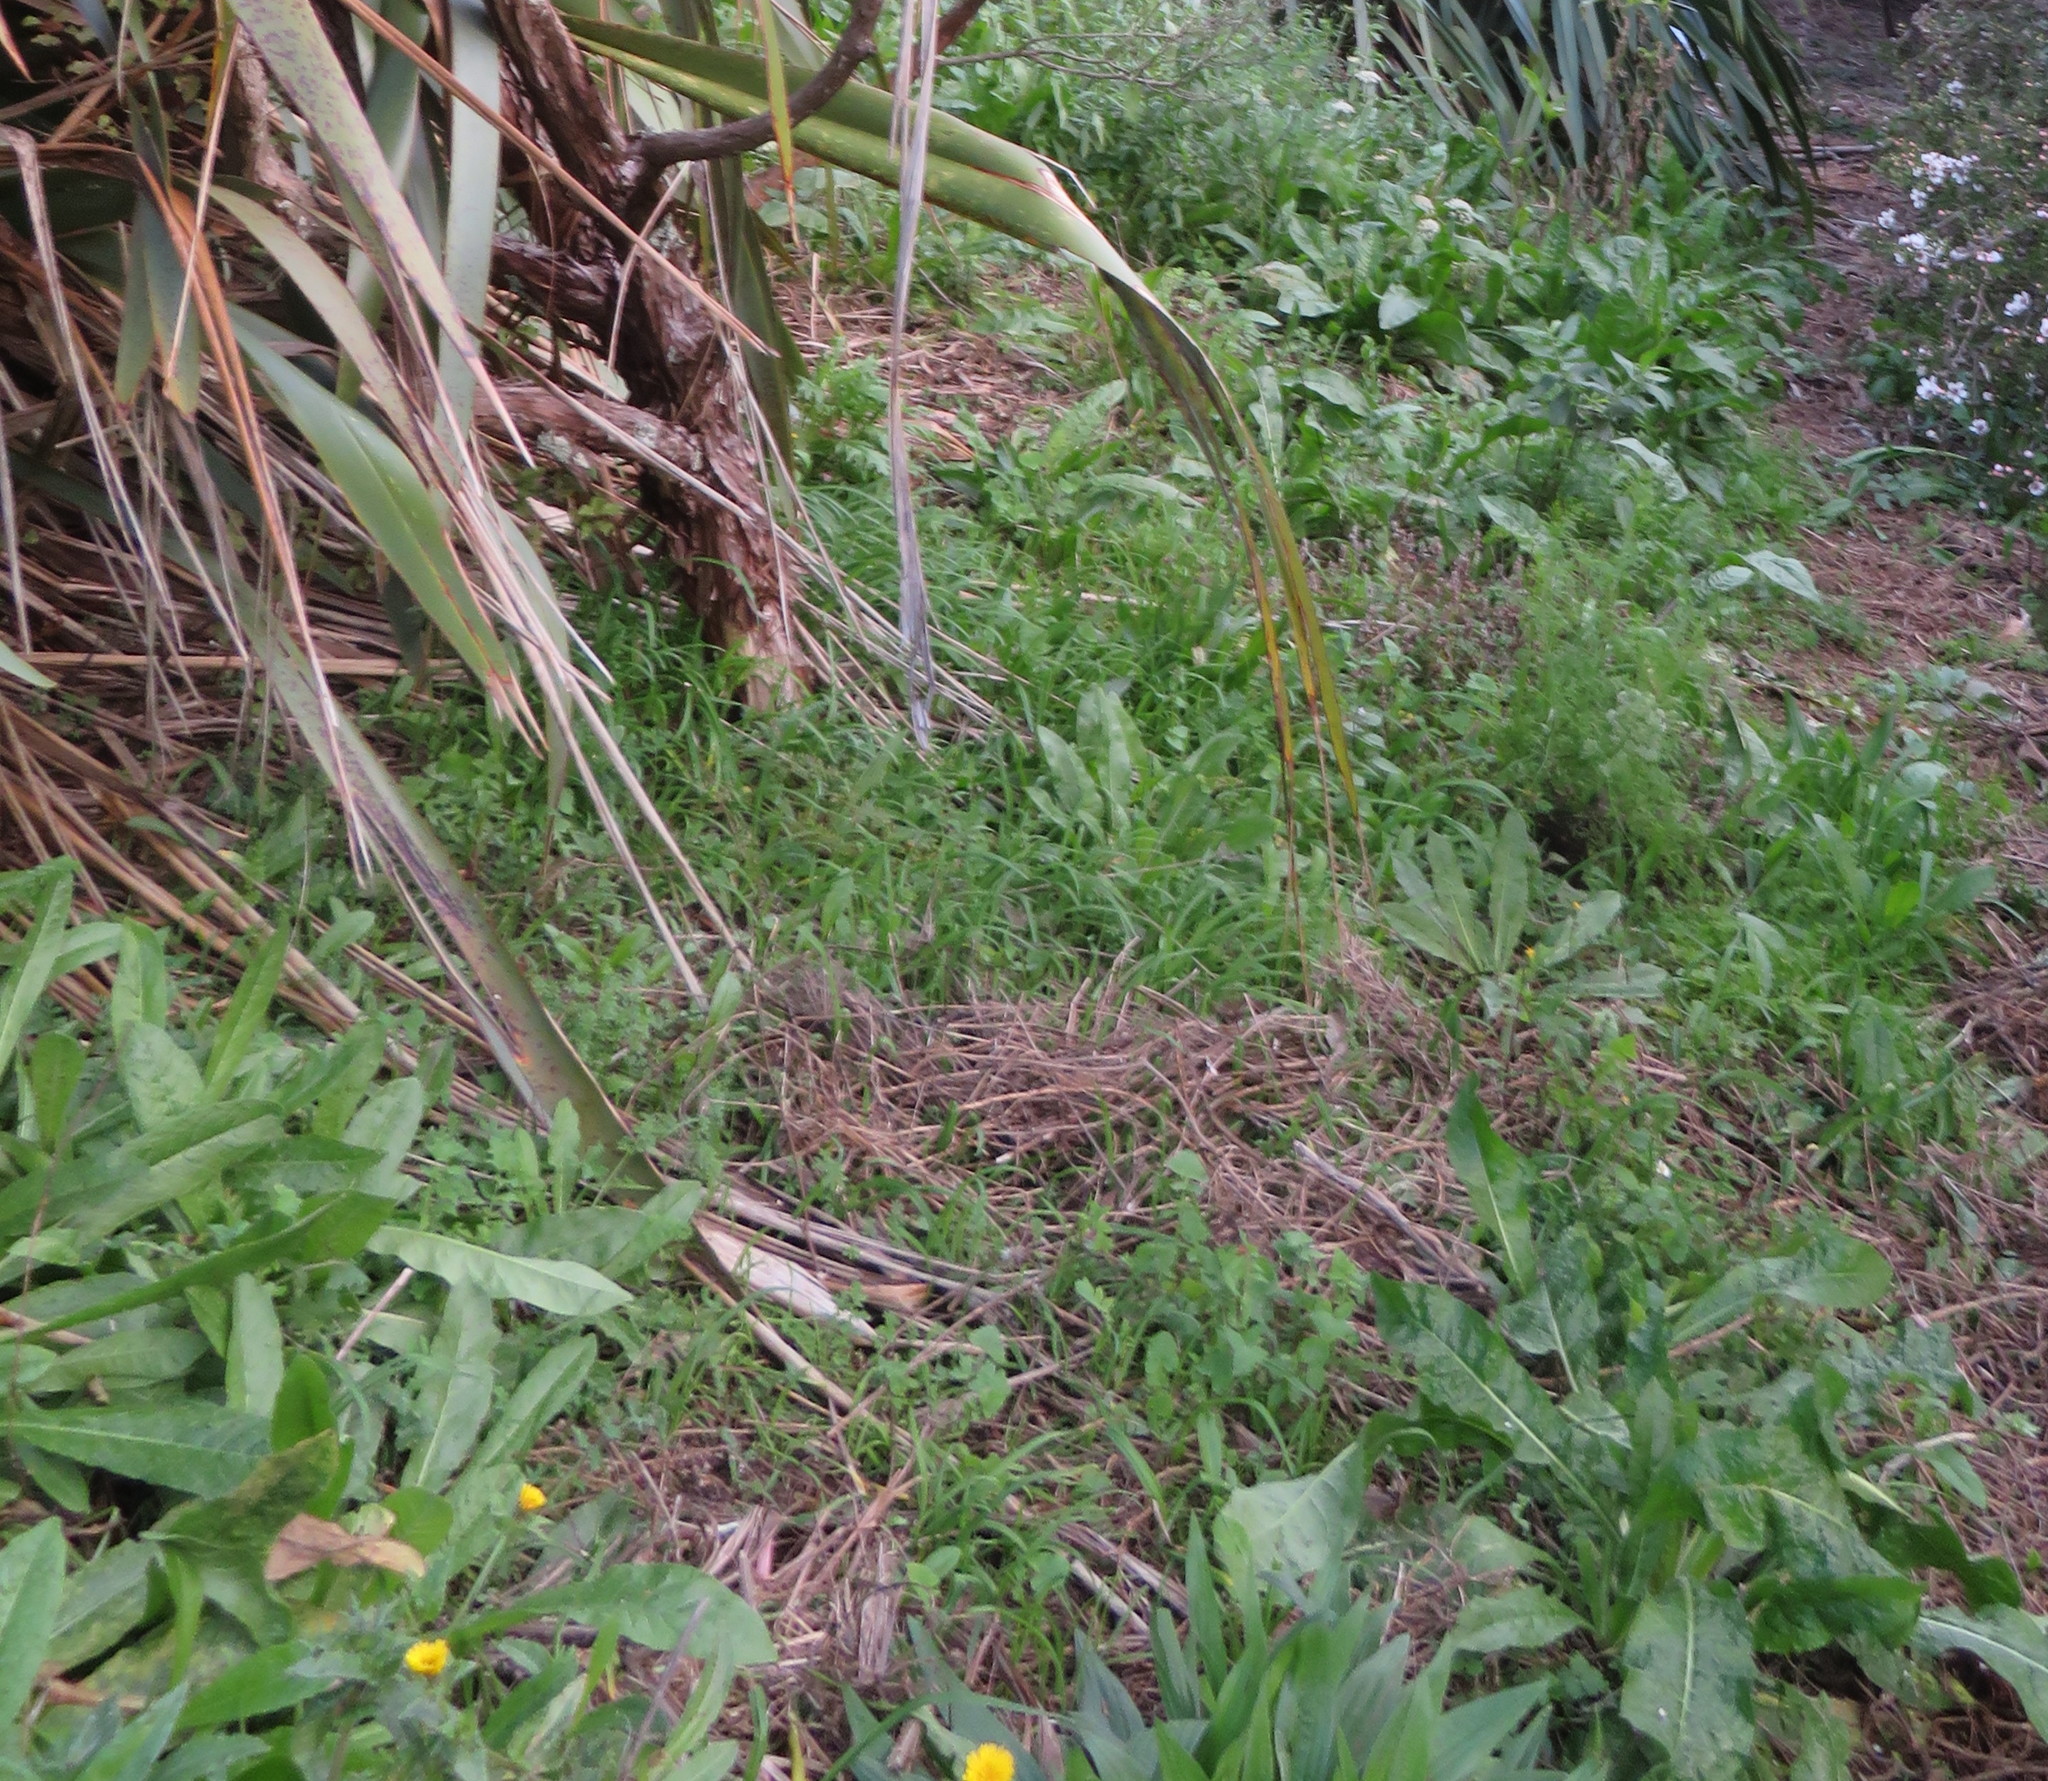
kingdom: Plantae
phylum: Tracheophyta
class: Liliopsida
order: Asparagales
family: Amaryllidaceae
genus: Allium
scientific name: Allium triquetrum
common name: Three-cornered garlic
